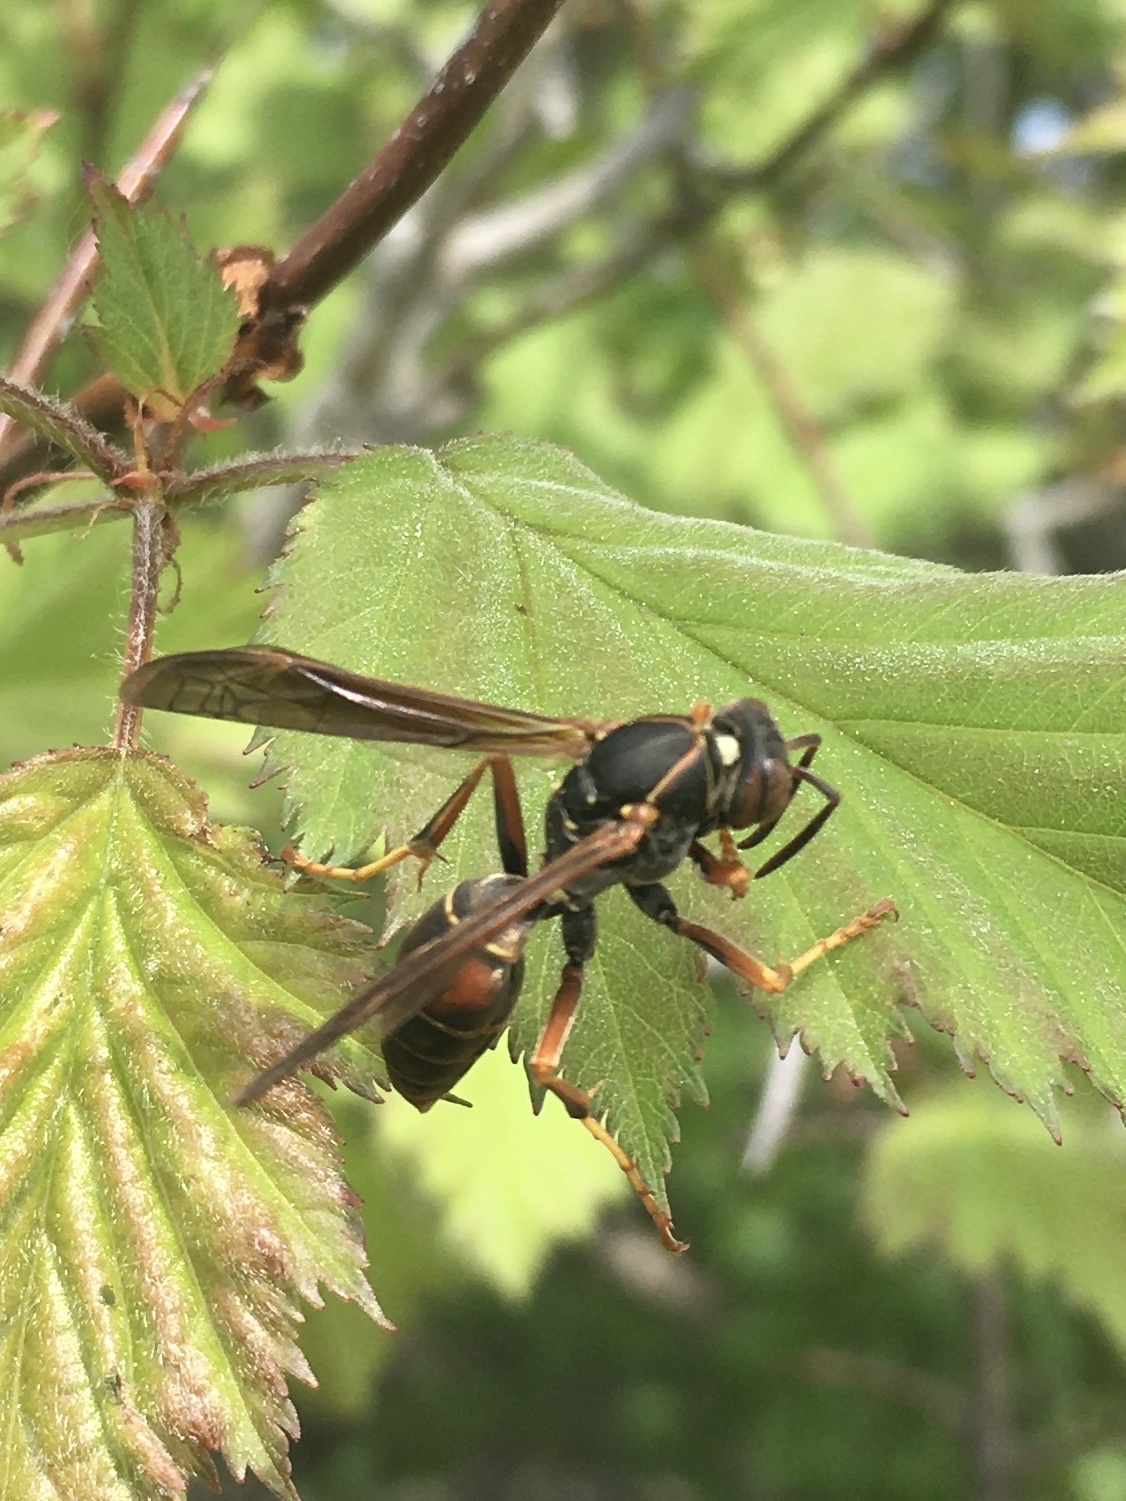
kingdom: Animalia
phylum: Arthropoda
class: Insecta
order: Hymenoptera
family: Eumenidae
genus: Polistes
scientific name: Polistes fuscatus
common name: Dark paper wasp
